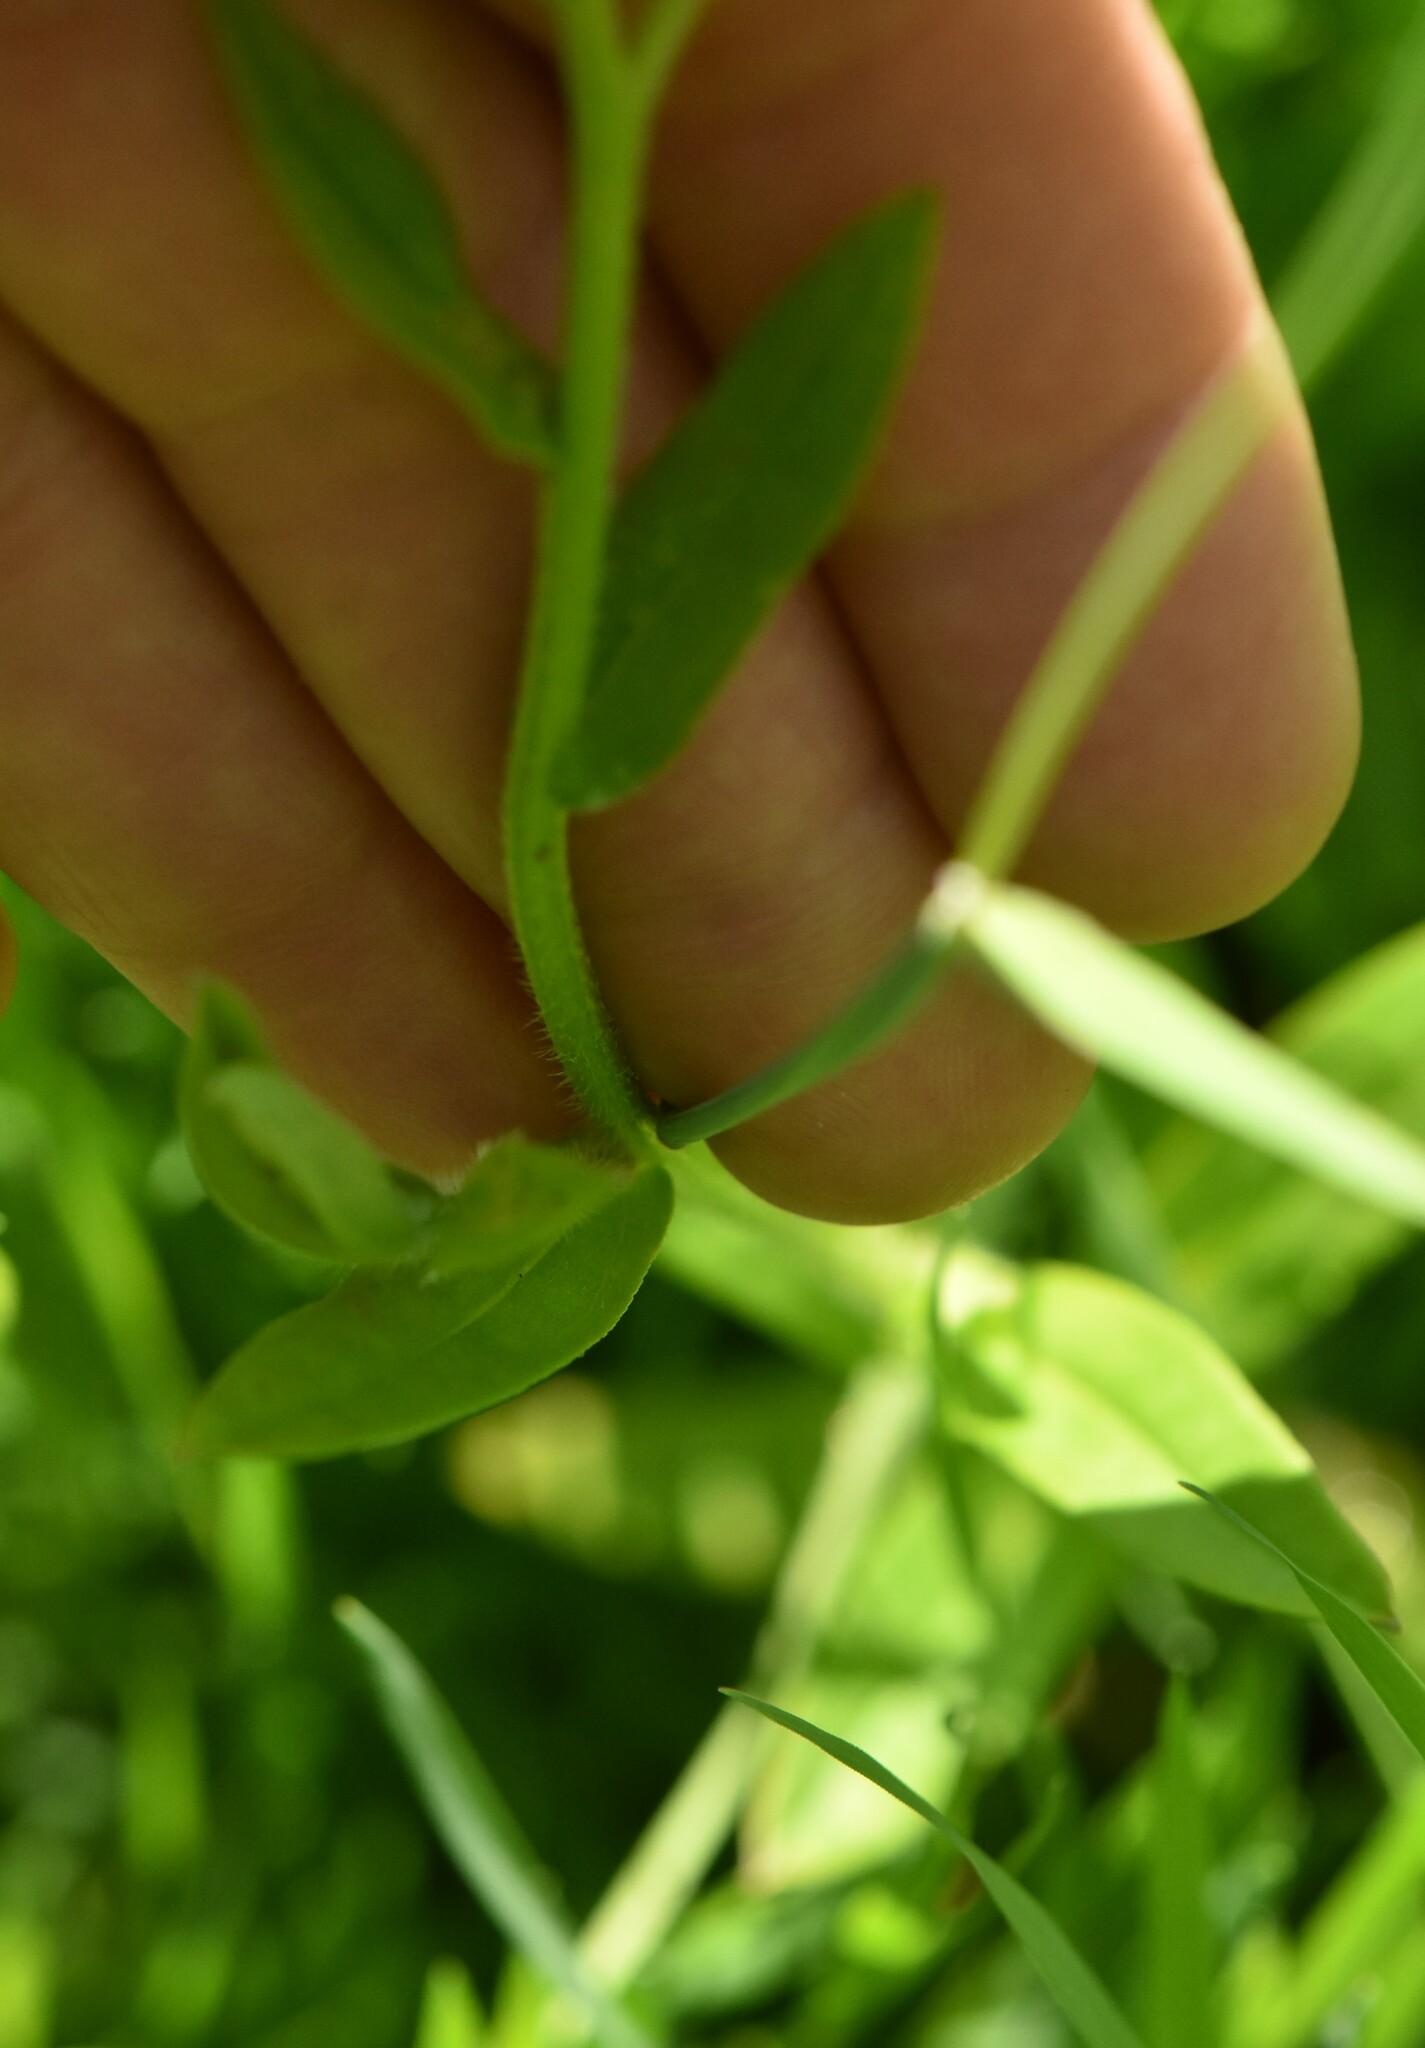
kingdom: Plantae
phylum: Tracheophyta
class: Magnoliopsida
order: Boraginales
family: Boraginaceae
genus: Myosotis
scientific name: Myosotis scorpioides
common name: Water forget-me-not
